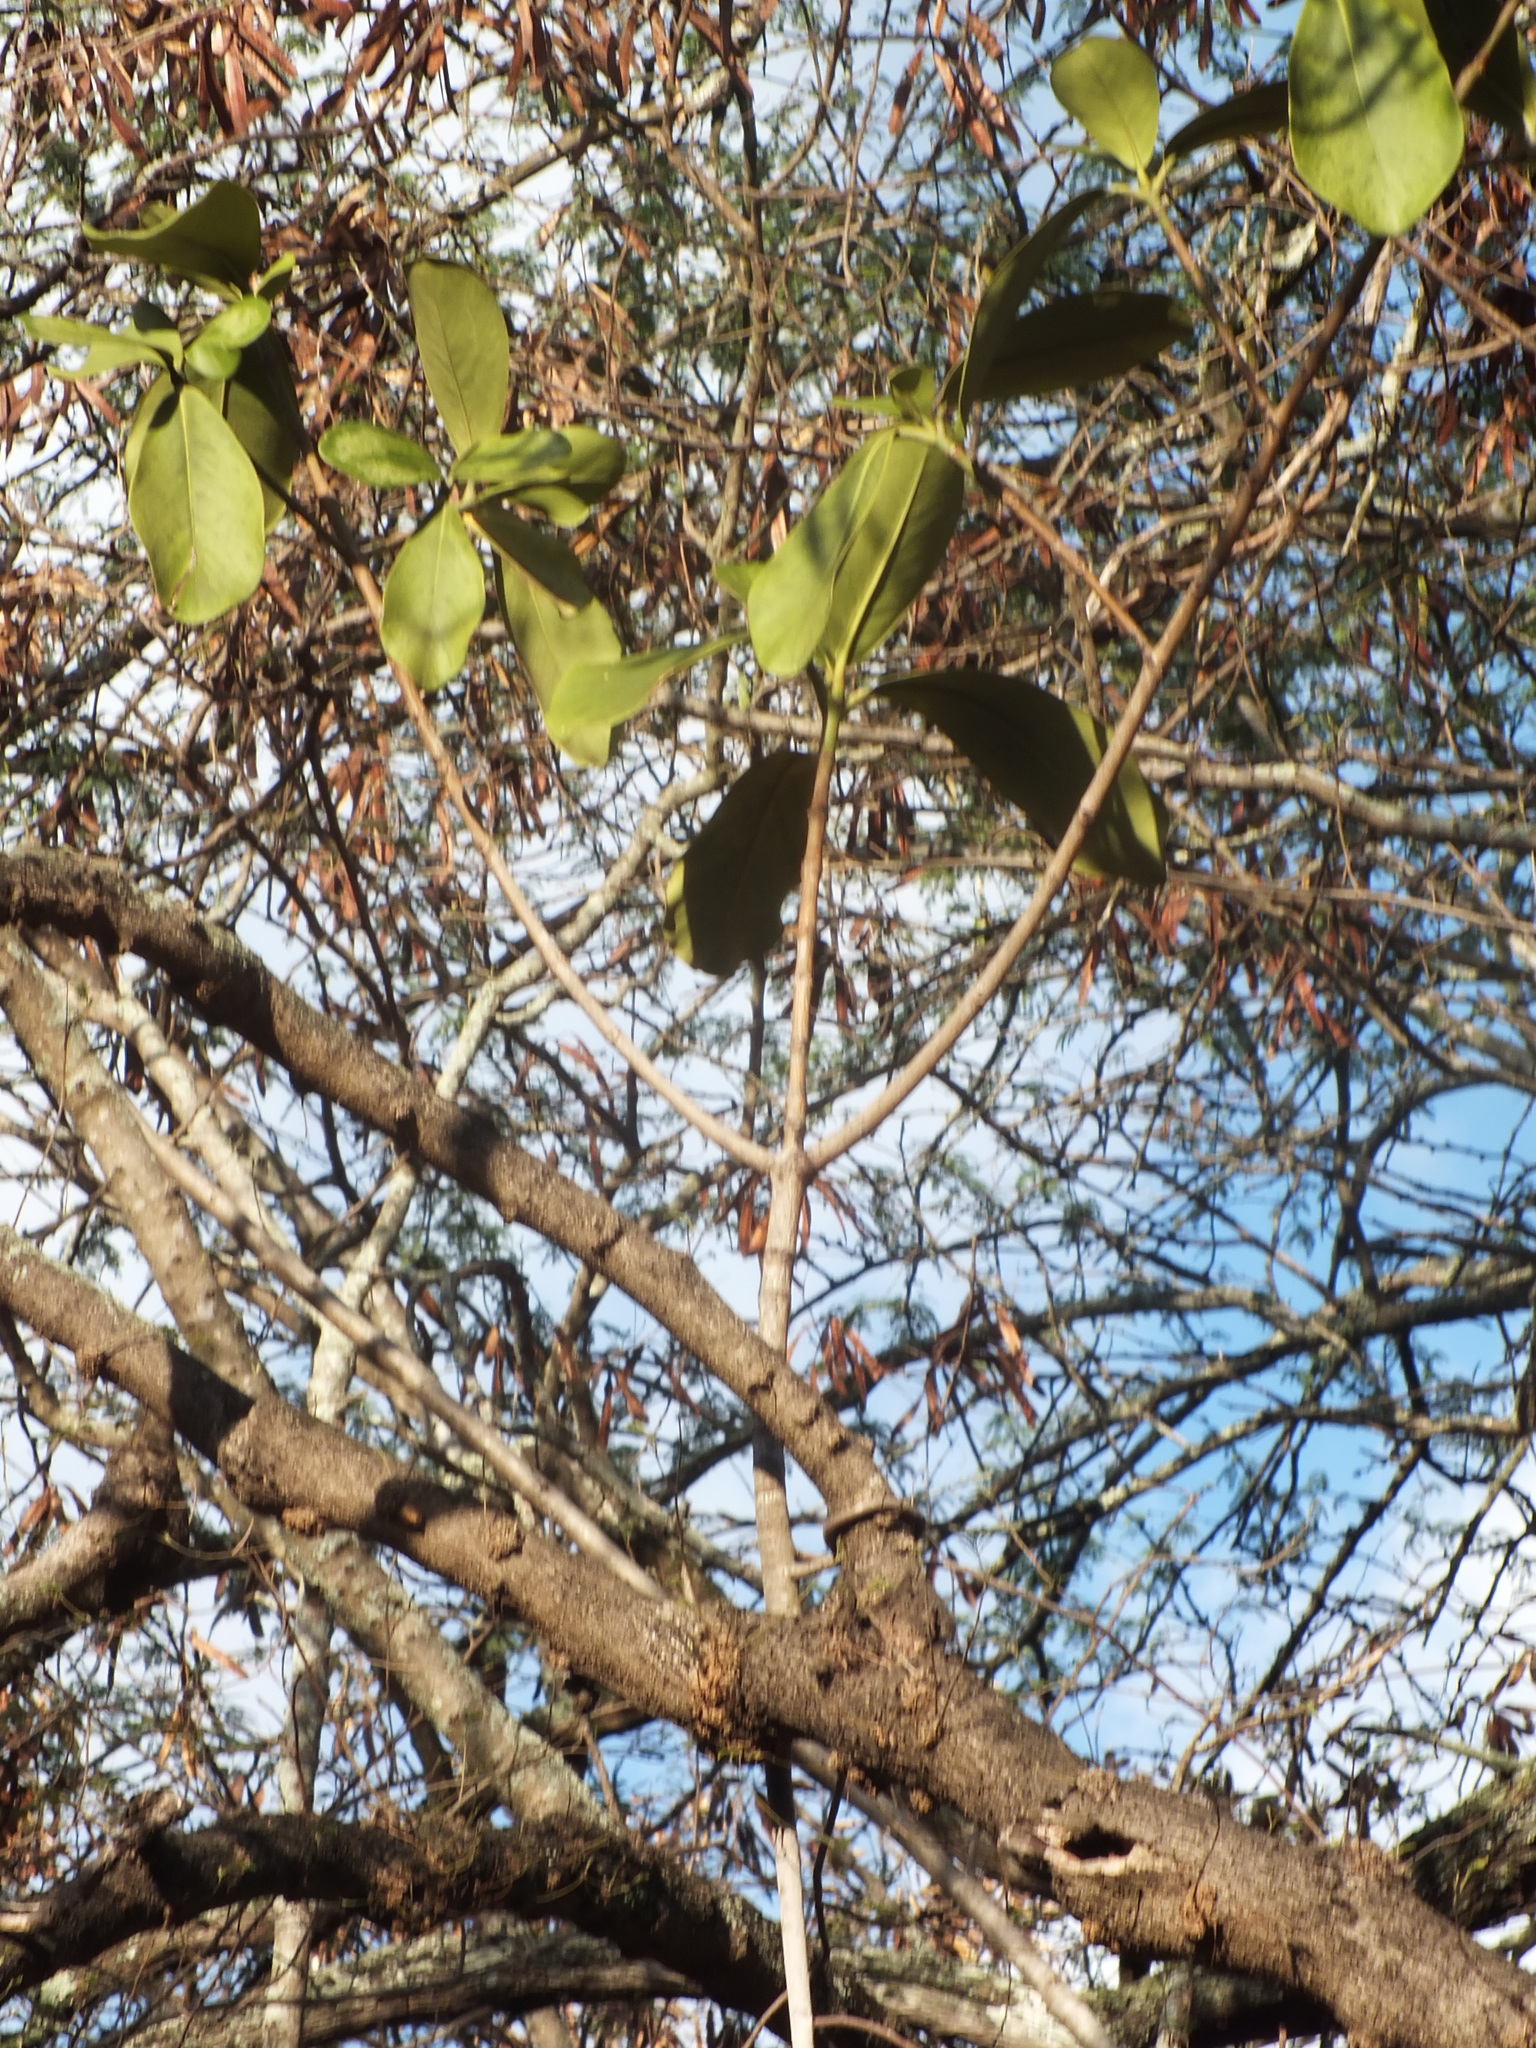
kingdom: Plantae
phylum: Tracheophyta
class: Magnoliopsida
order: Malpighiales
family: Clusiaceae
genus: Clusia
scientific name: Clusia rosea
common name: Scotch attorney
